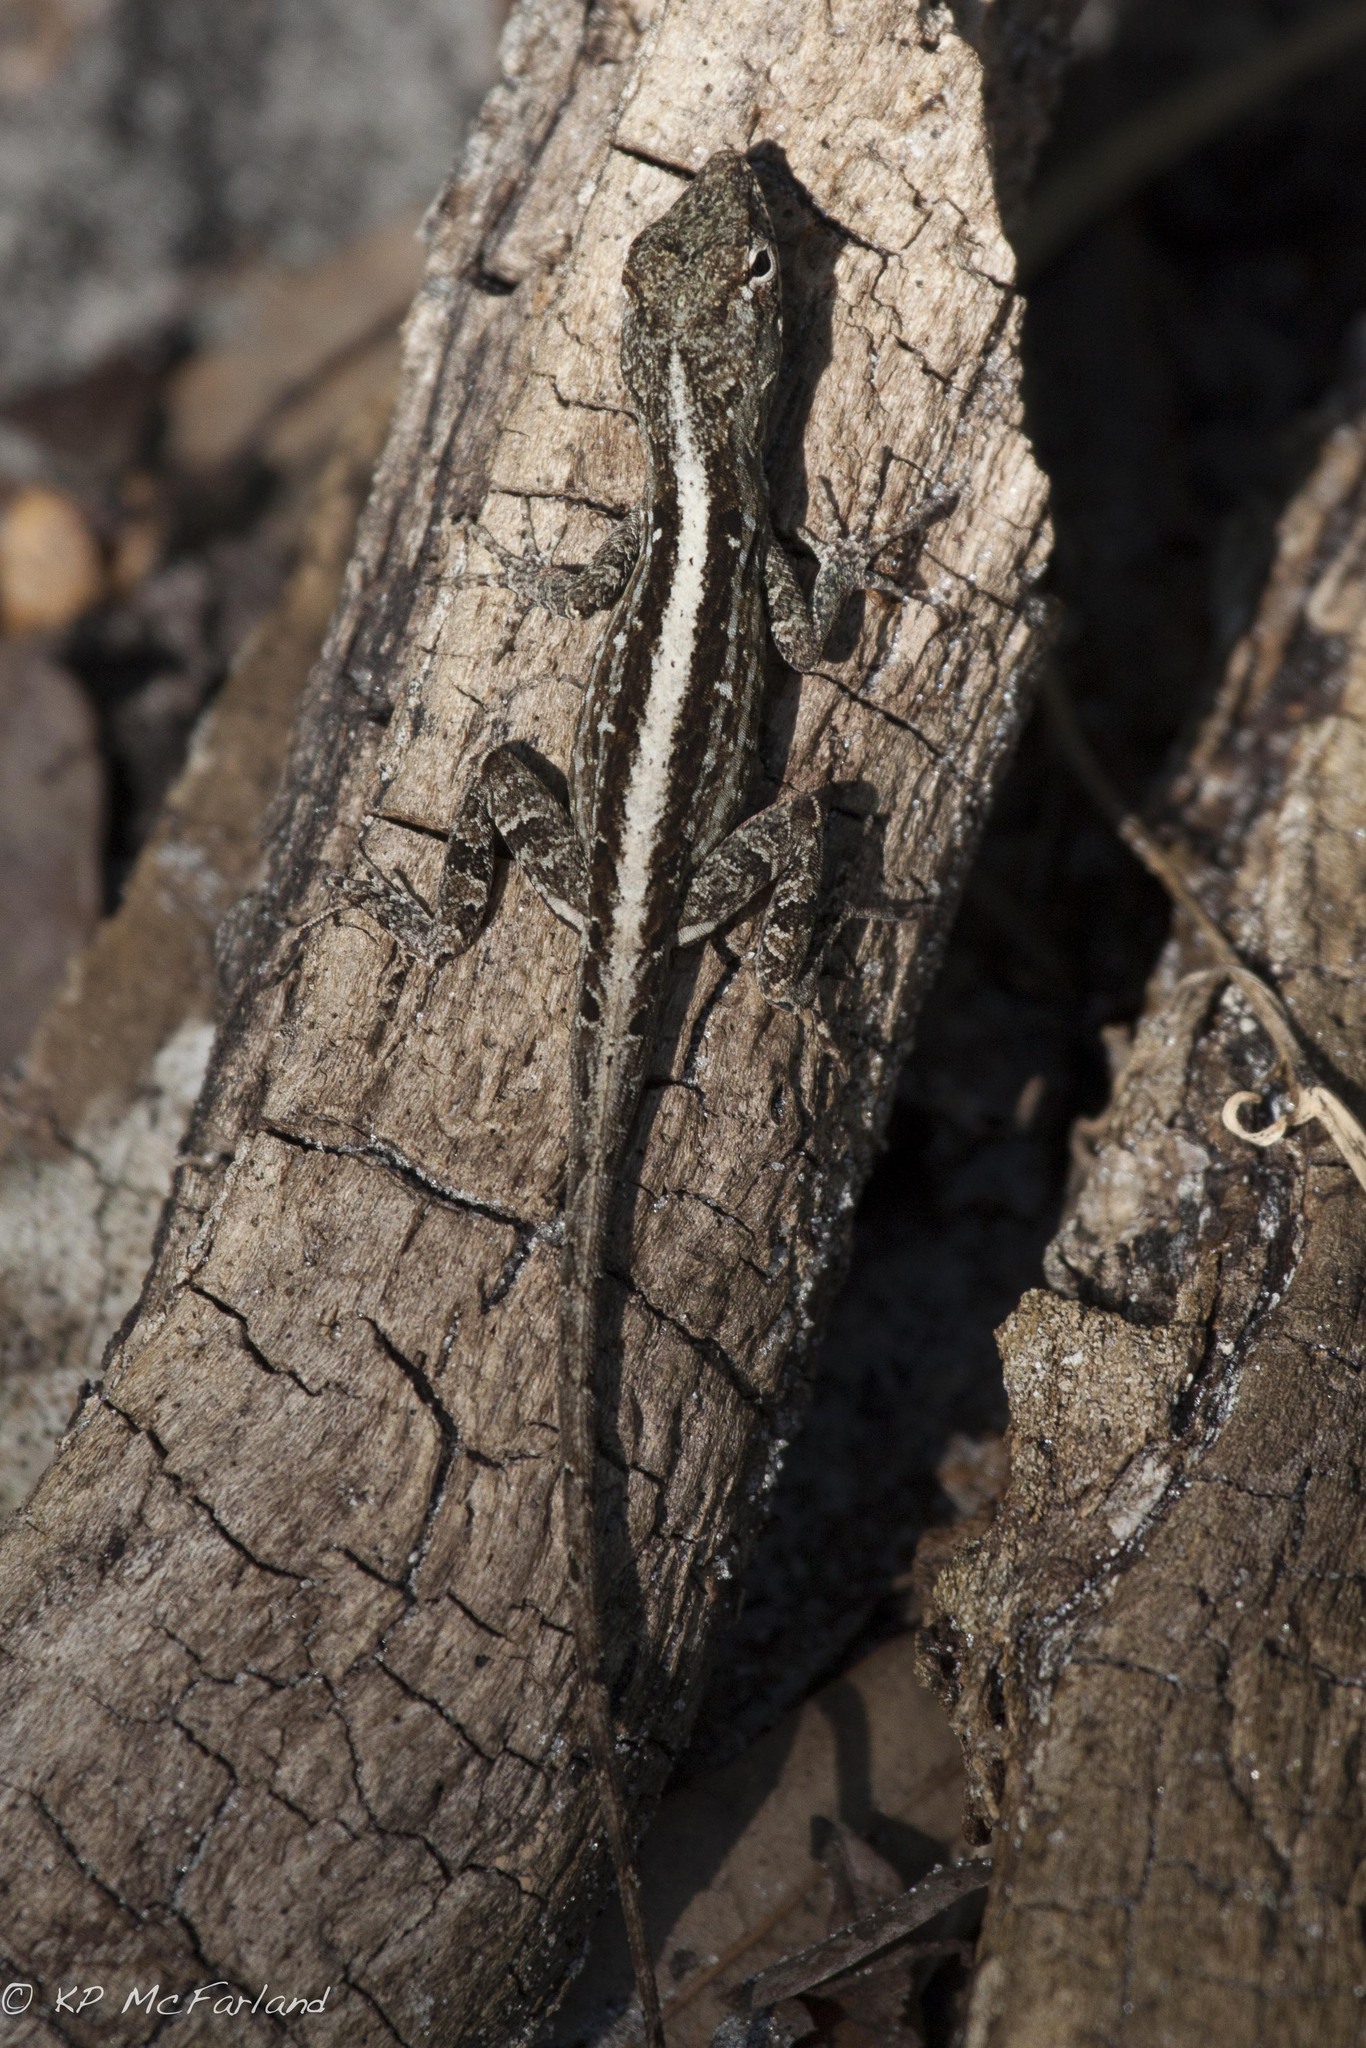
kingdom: Animalia
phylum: Chordata
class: Squamata
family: Dactyloidae
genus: Anolis
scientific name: Anolis sagrei
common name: Brown anole
